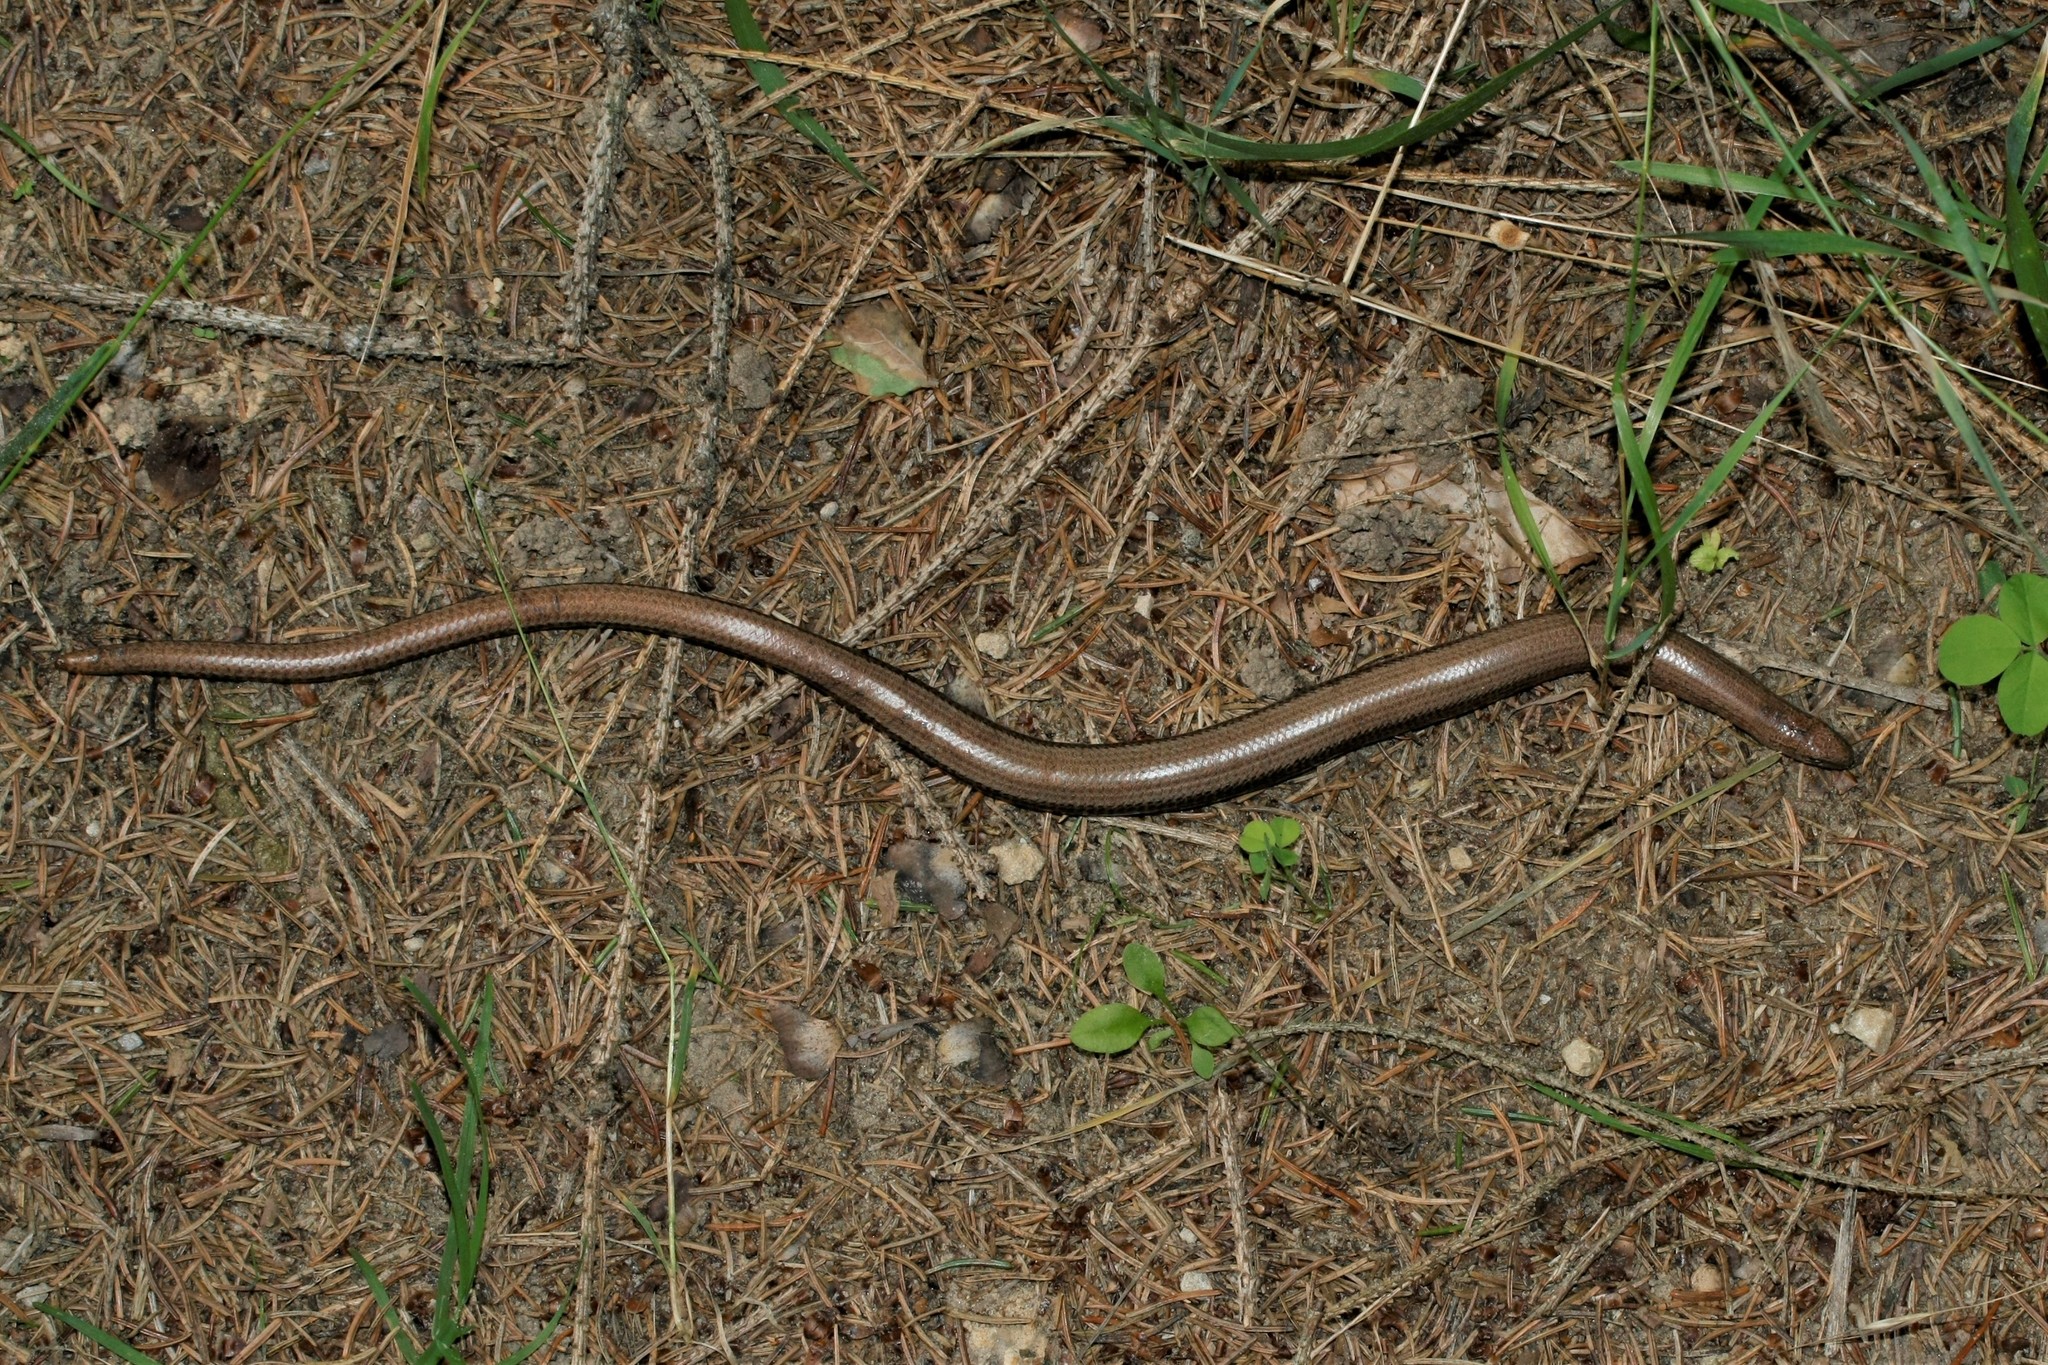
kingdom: Animalia
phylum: Chordata
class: Squamata
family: Anguidae
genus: Anguis
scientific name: Anguis fragilis
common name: Slow worm
